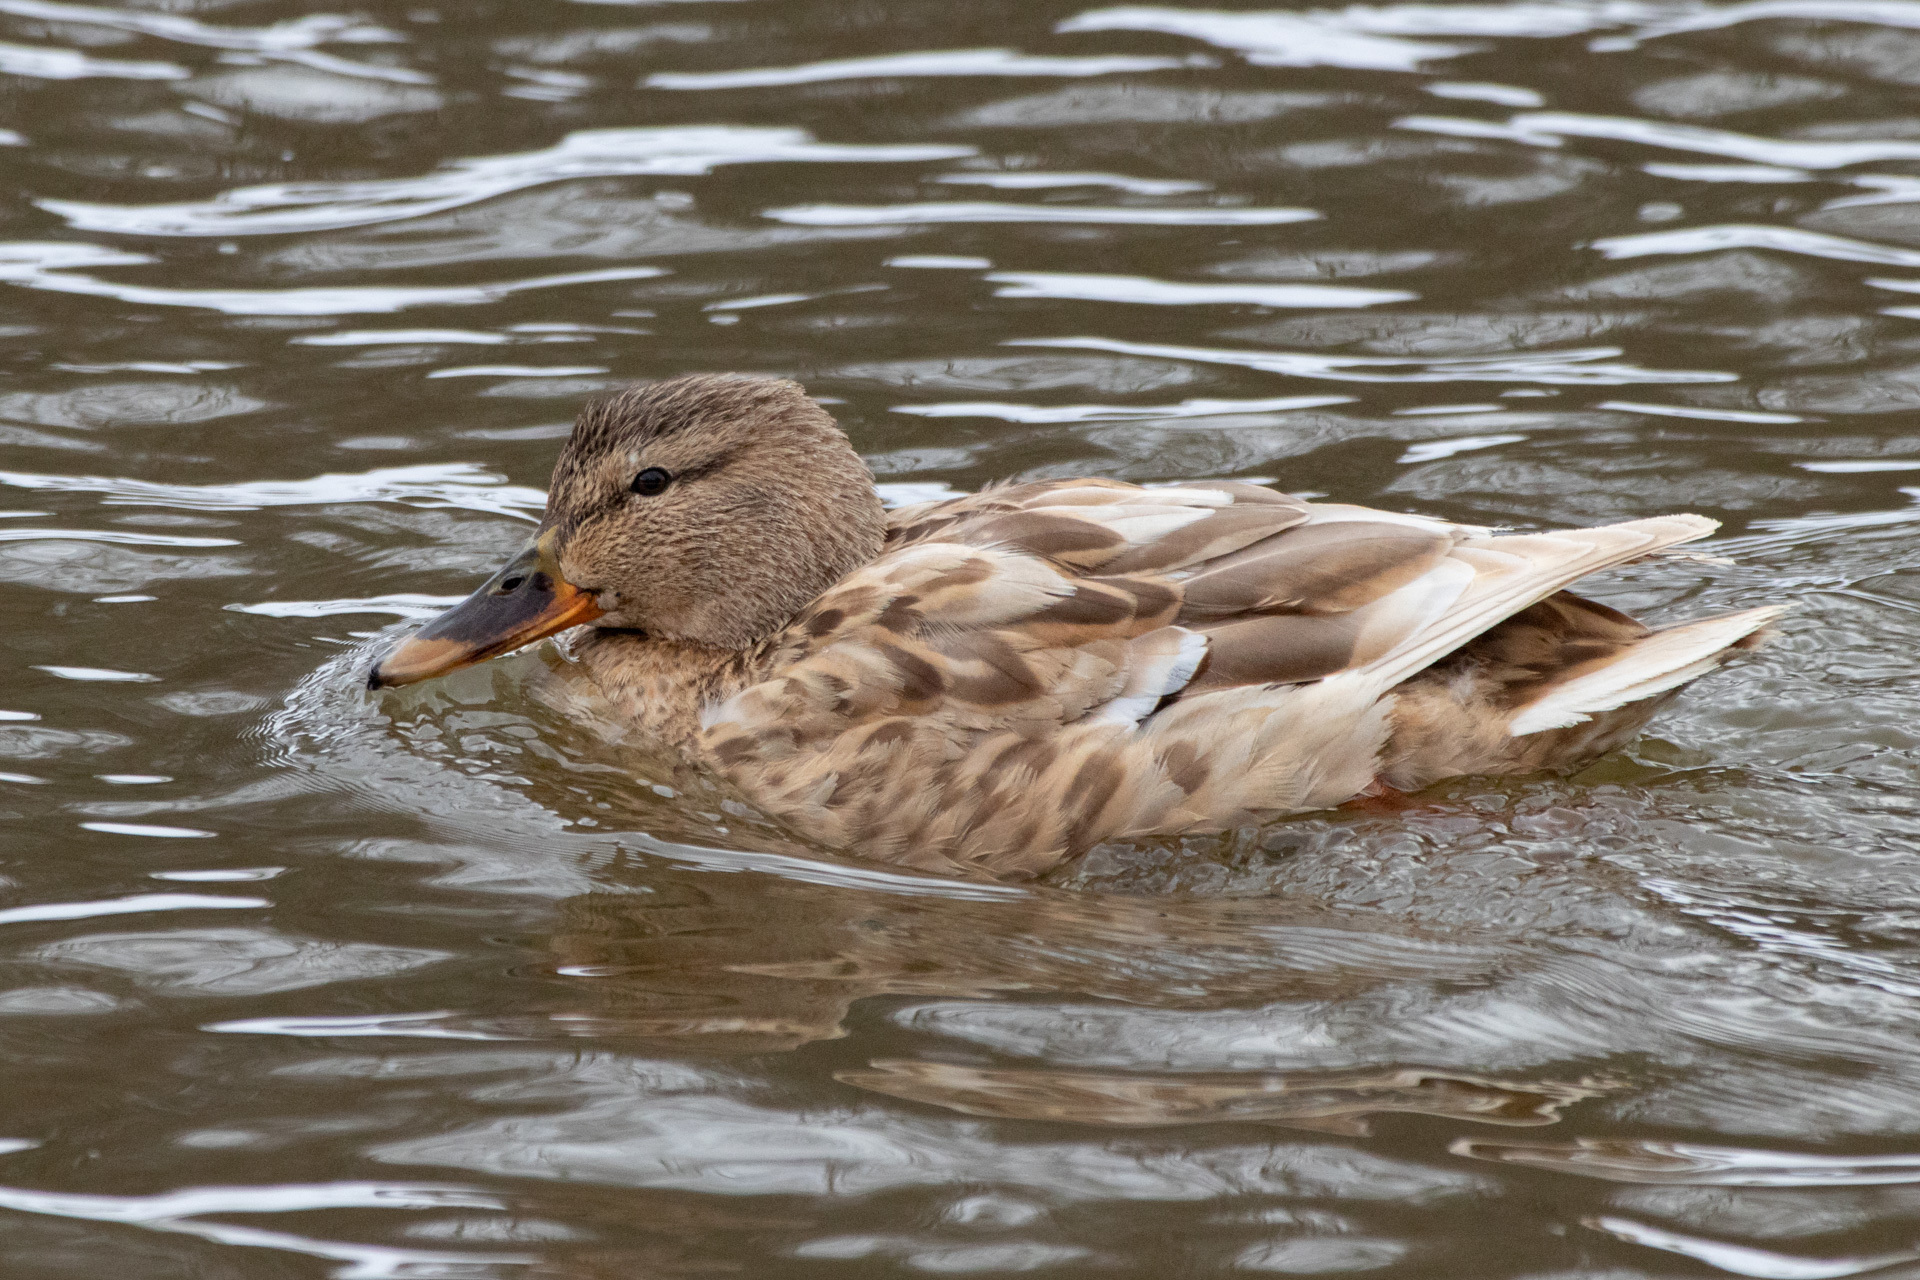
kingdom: Animalia
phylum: Chordata
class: Aves
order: Anseriformes
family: Anatidae
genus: Anas
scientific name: Anas platyrhynchos
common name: Mallard
